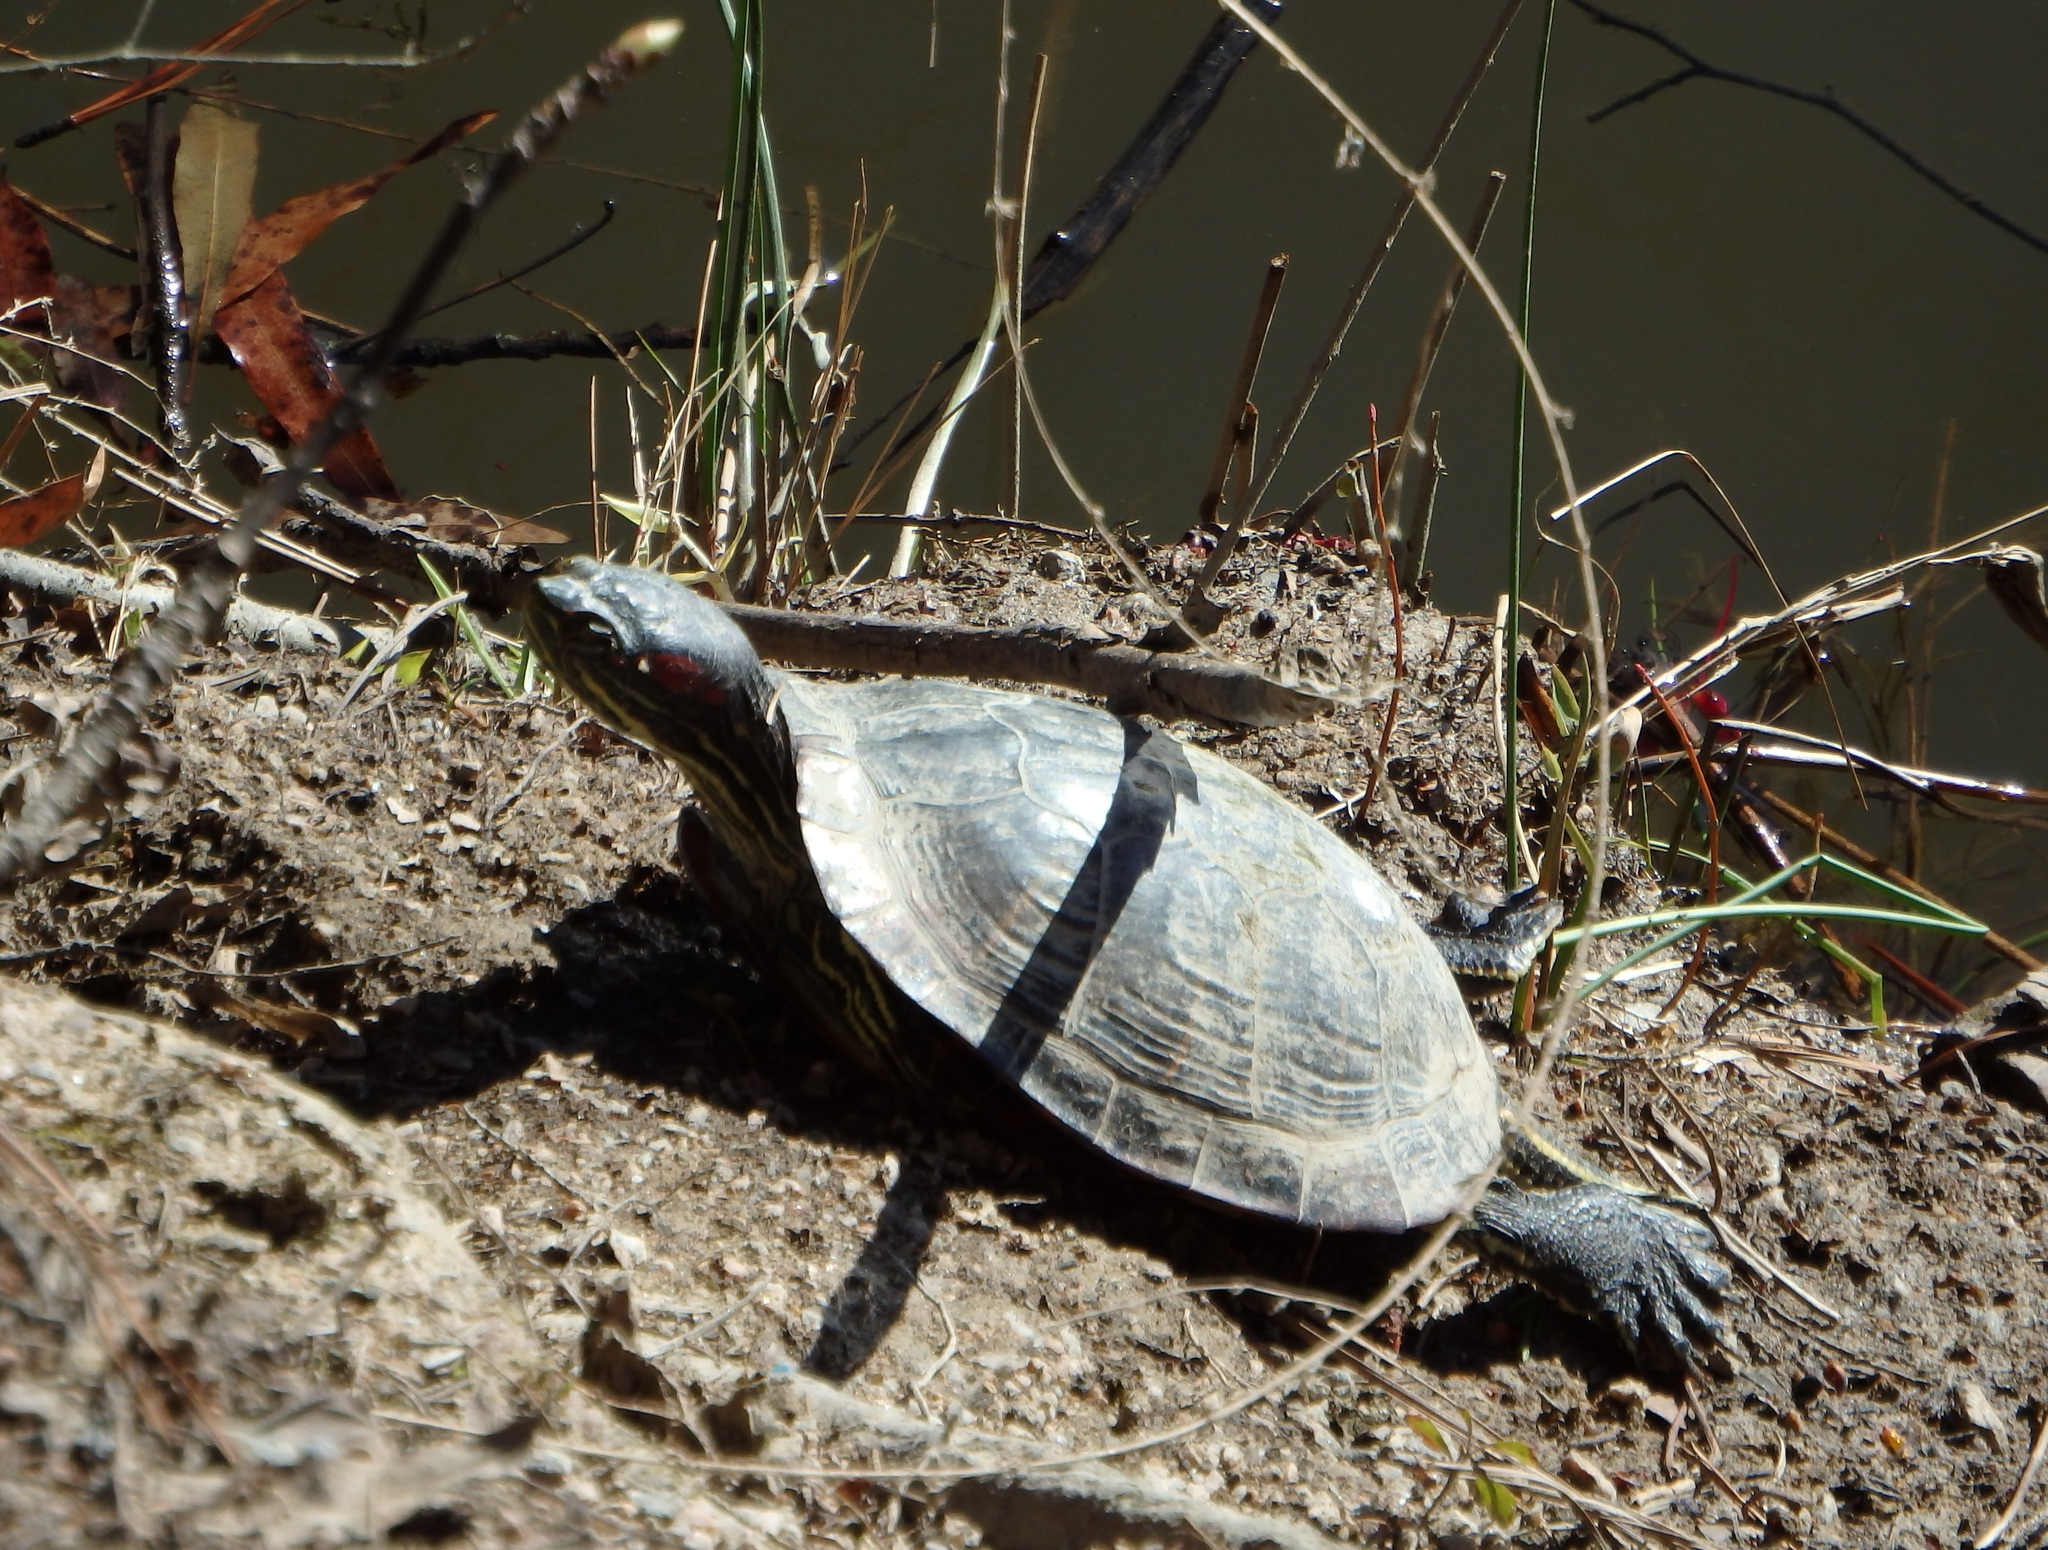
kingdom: Animalia
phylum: Chordata
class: Testudines
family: Emydidae
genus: Trachemys
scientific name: Trachemys scripta
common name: Slider
